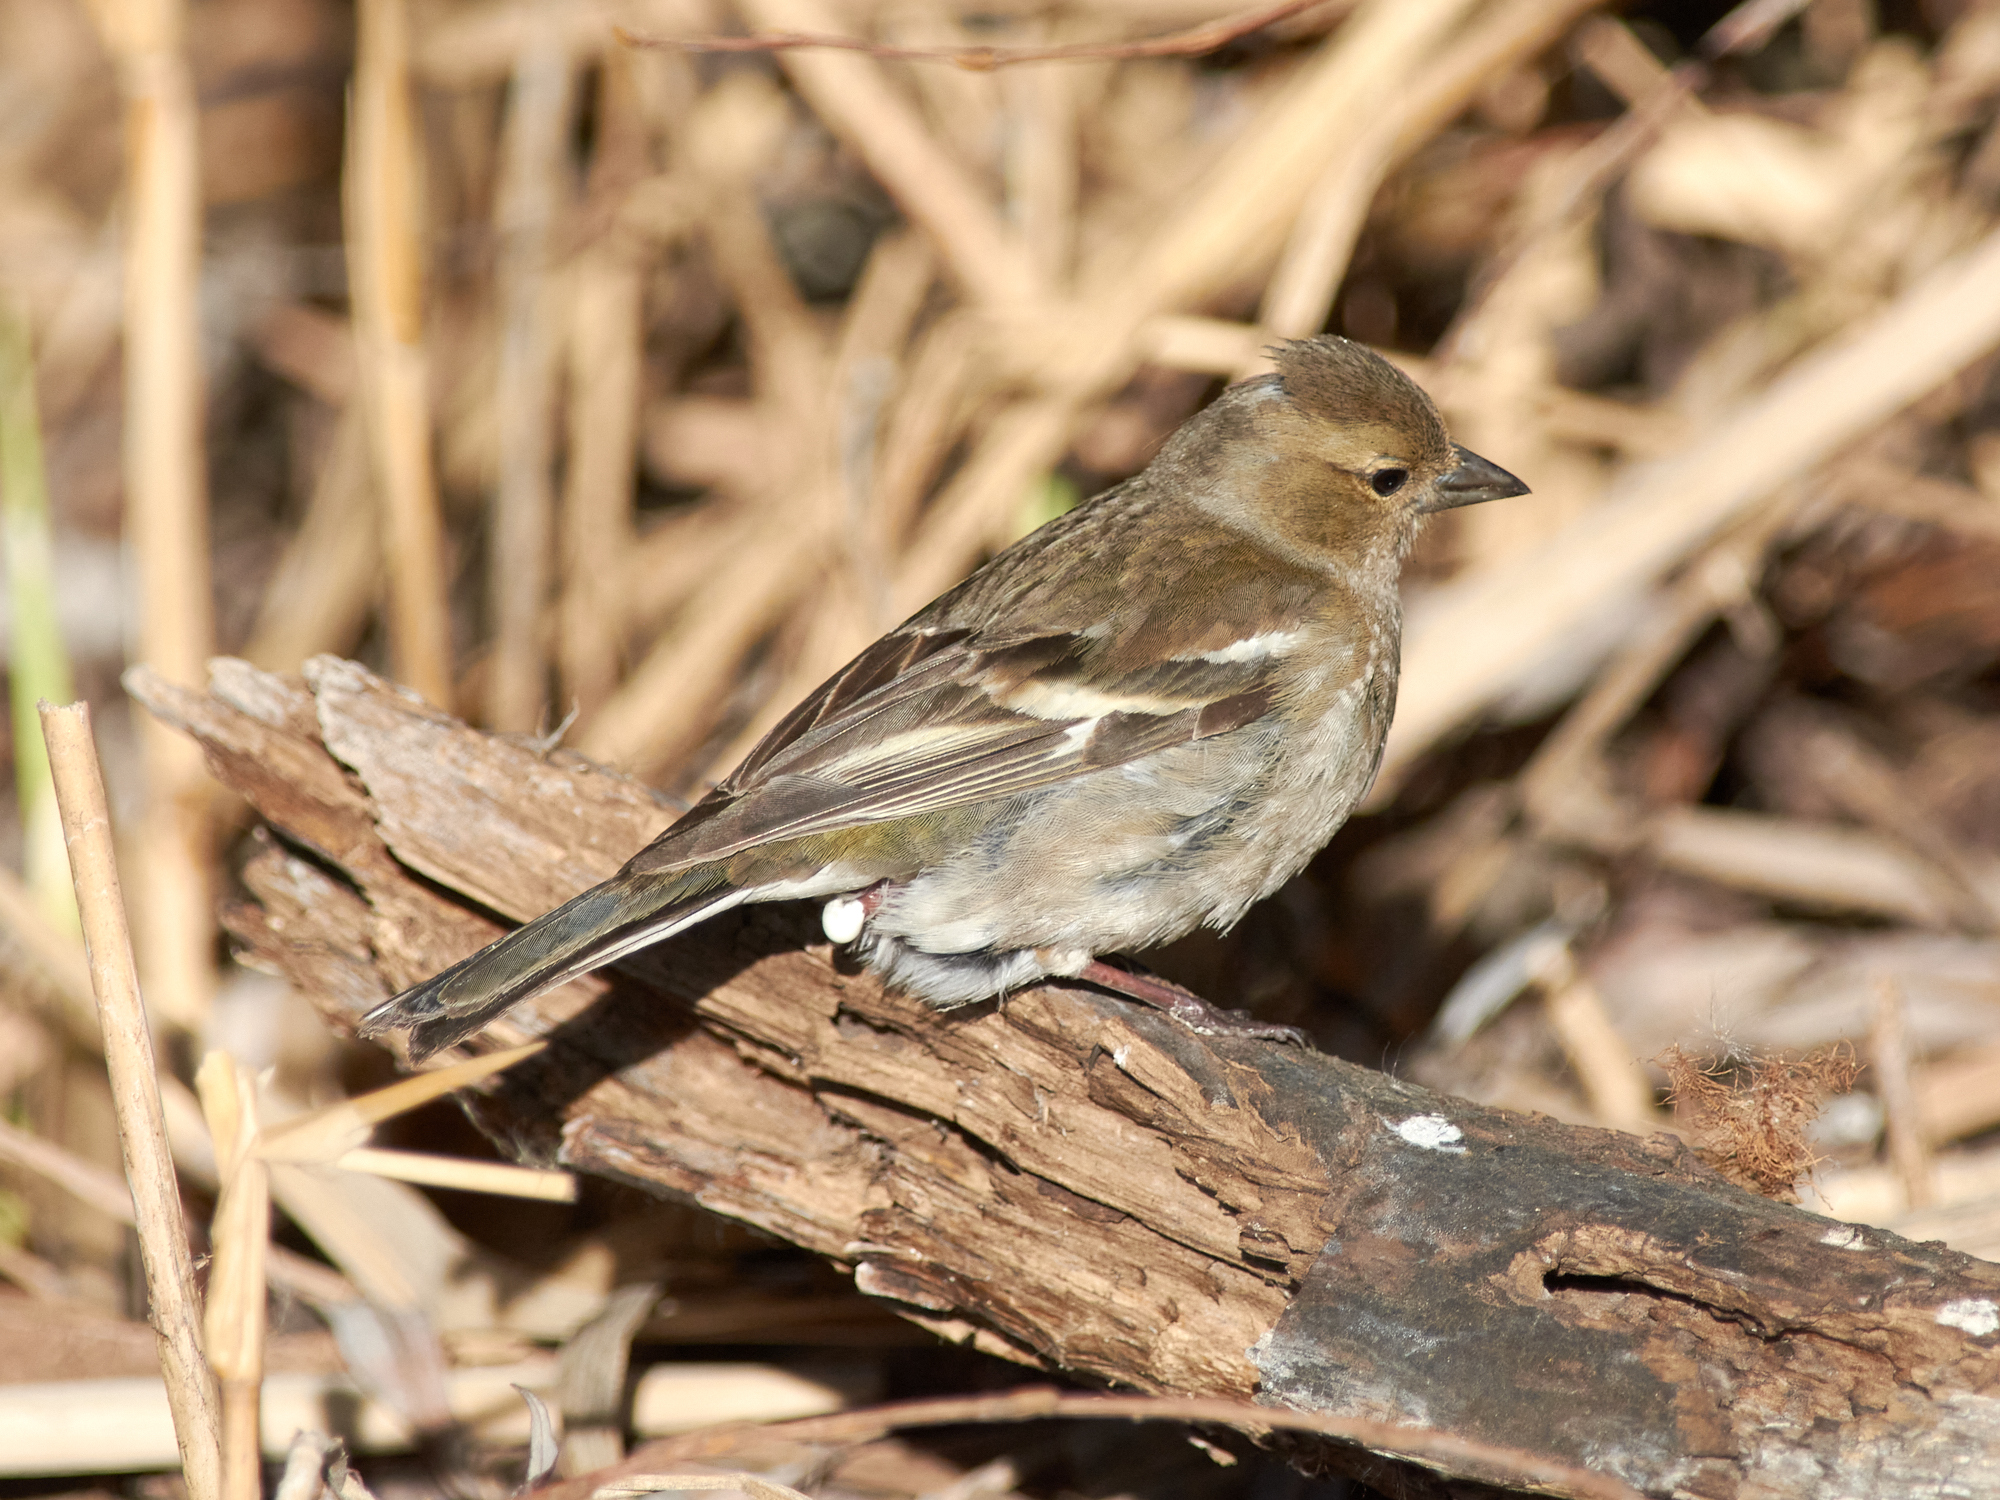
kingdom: Animalia
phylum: Chordata
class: Aves
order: Passeriformes
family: Fringillidae
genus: Fringilla
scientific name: Fringilla coelebs
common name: Common chaffinch
